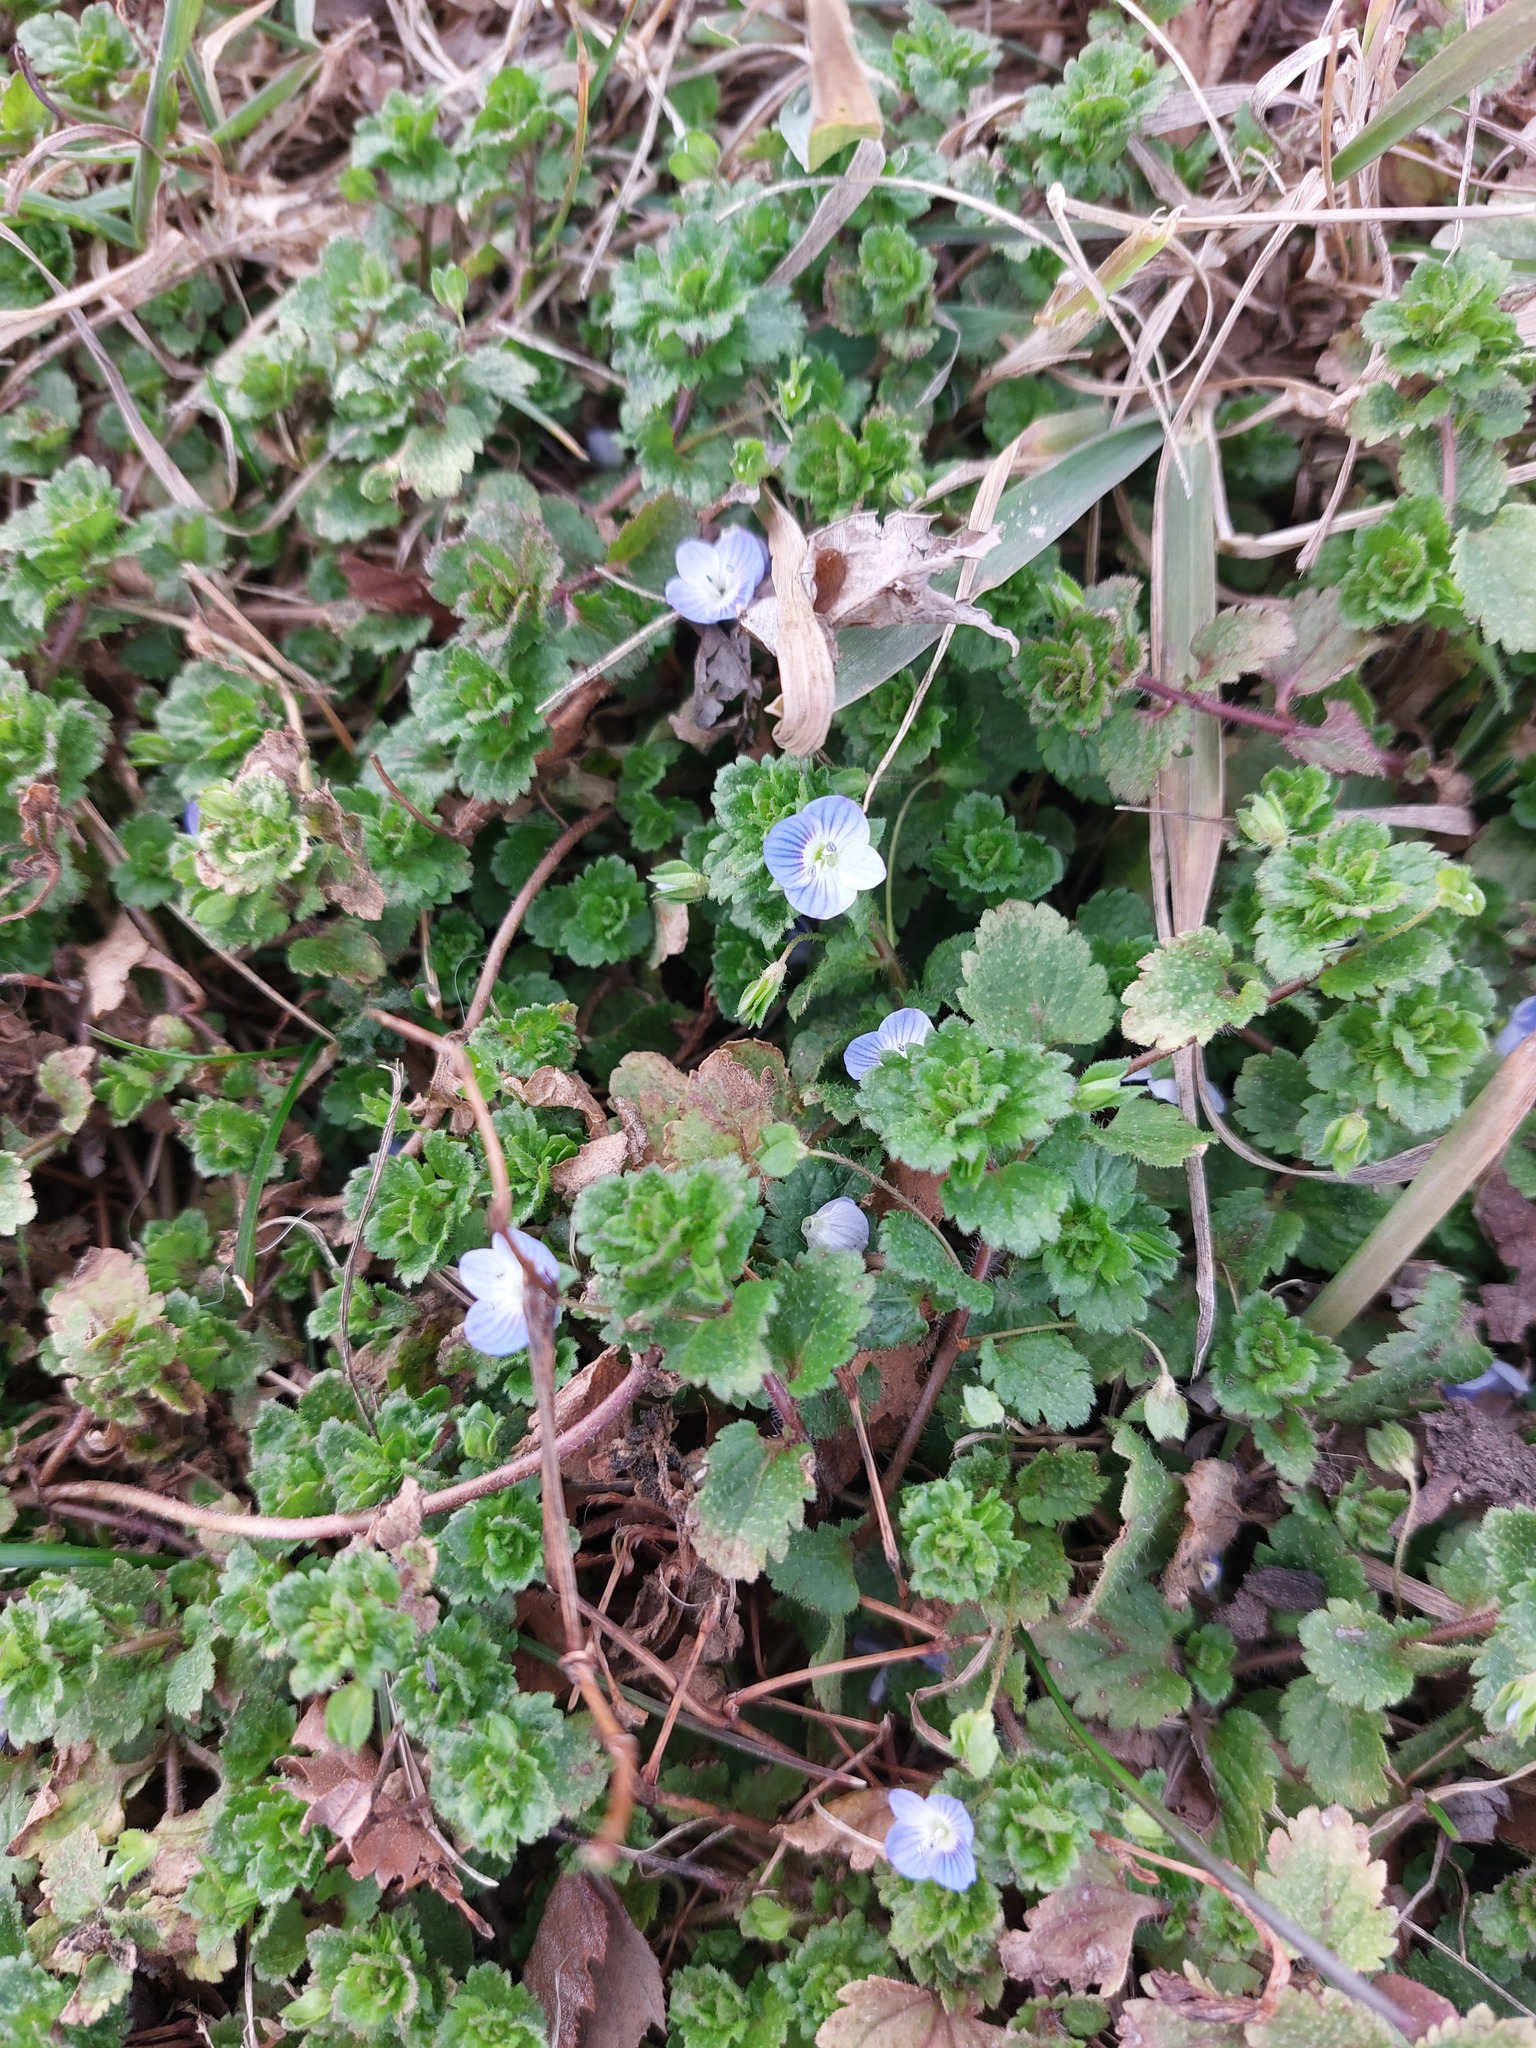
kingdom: Plantae
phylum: Tracheophyta
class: Magnoliopsida
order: Lamiales
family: Plantaginaceae
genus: Veronica
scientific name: Veronica persica
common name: Common field-speedwell
